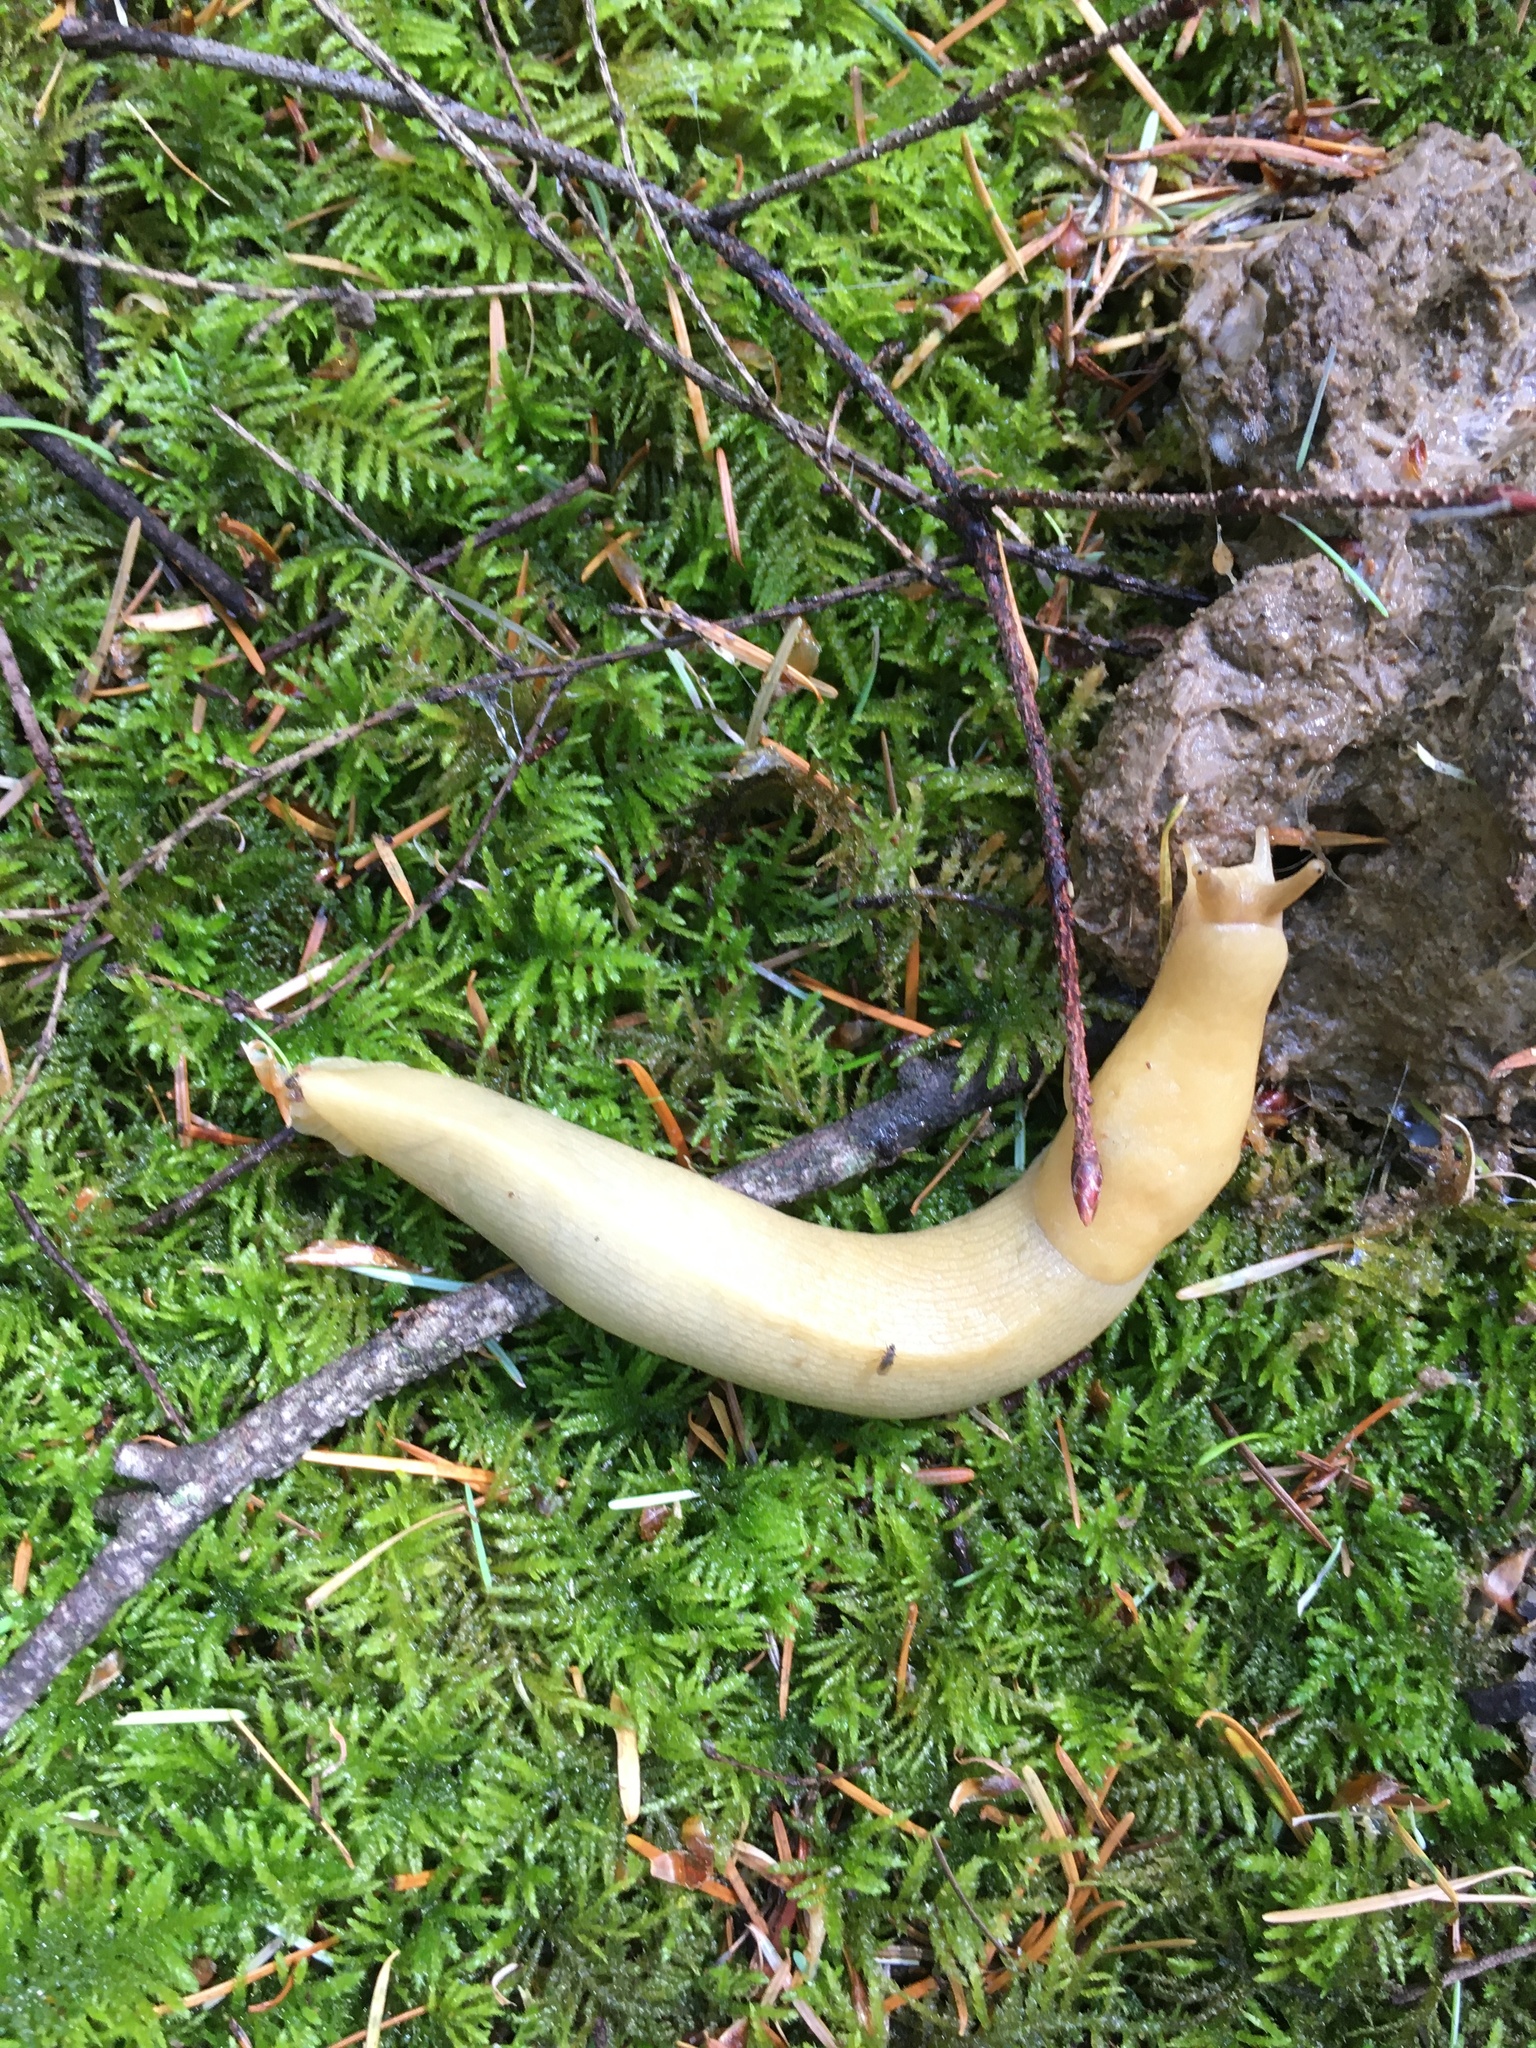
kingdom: Animalia
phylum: Mollusca
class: Gastropoda
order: Stylommatophora
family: Ariolimacidae
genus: Ariolimax
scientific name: Ariolimax columbianus
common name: Pacific banana slug
